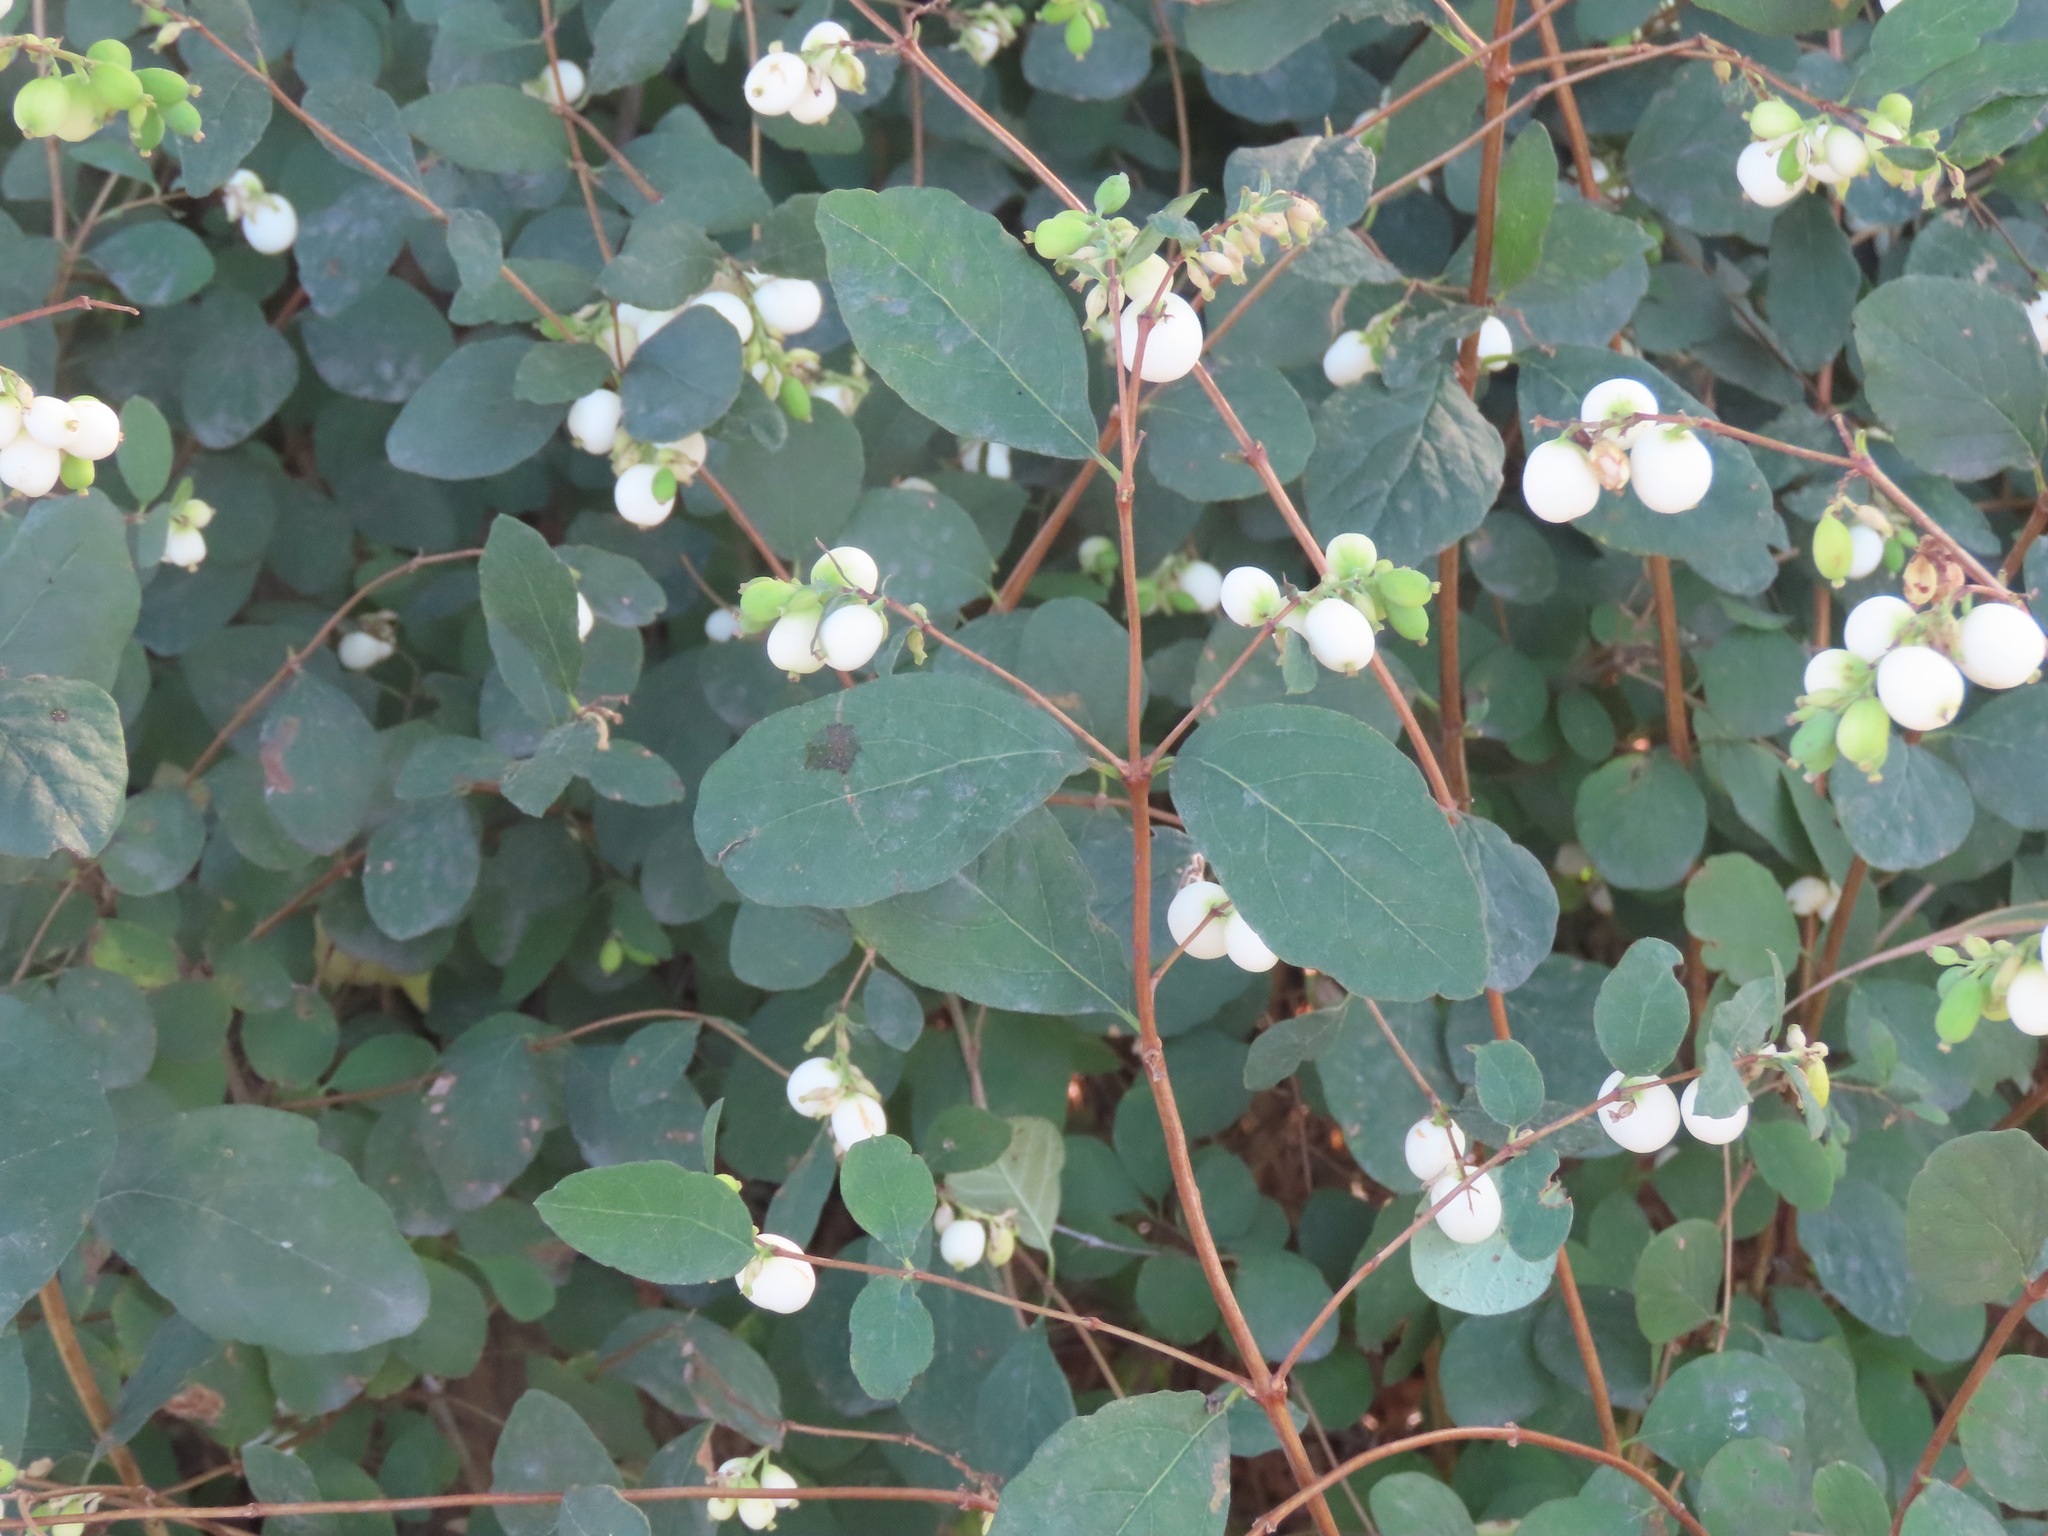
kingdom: Plantae
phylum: Tracheophyta
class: Magnoliopsida
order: Dipsacales
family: Caprifoliaceae
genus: Symphoricarpos
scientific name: Symphoricarpos albus
